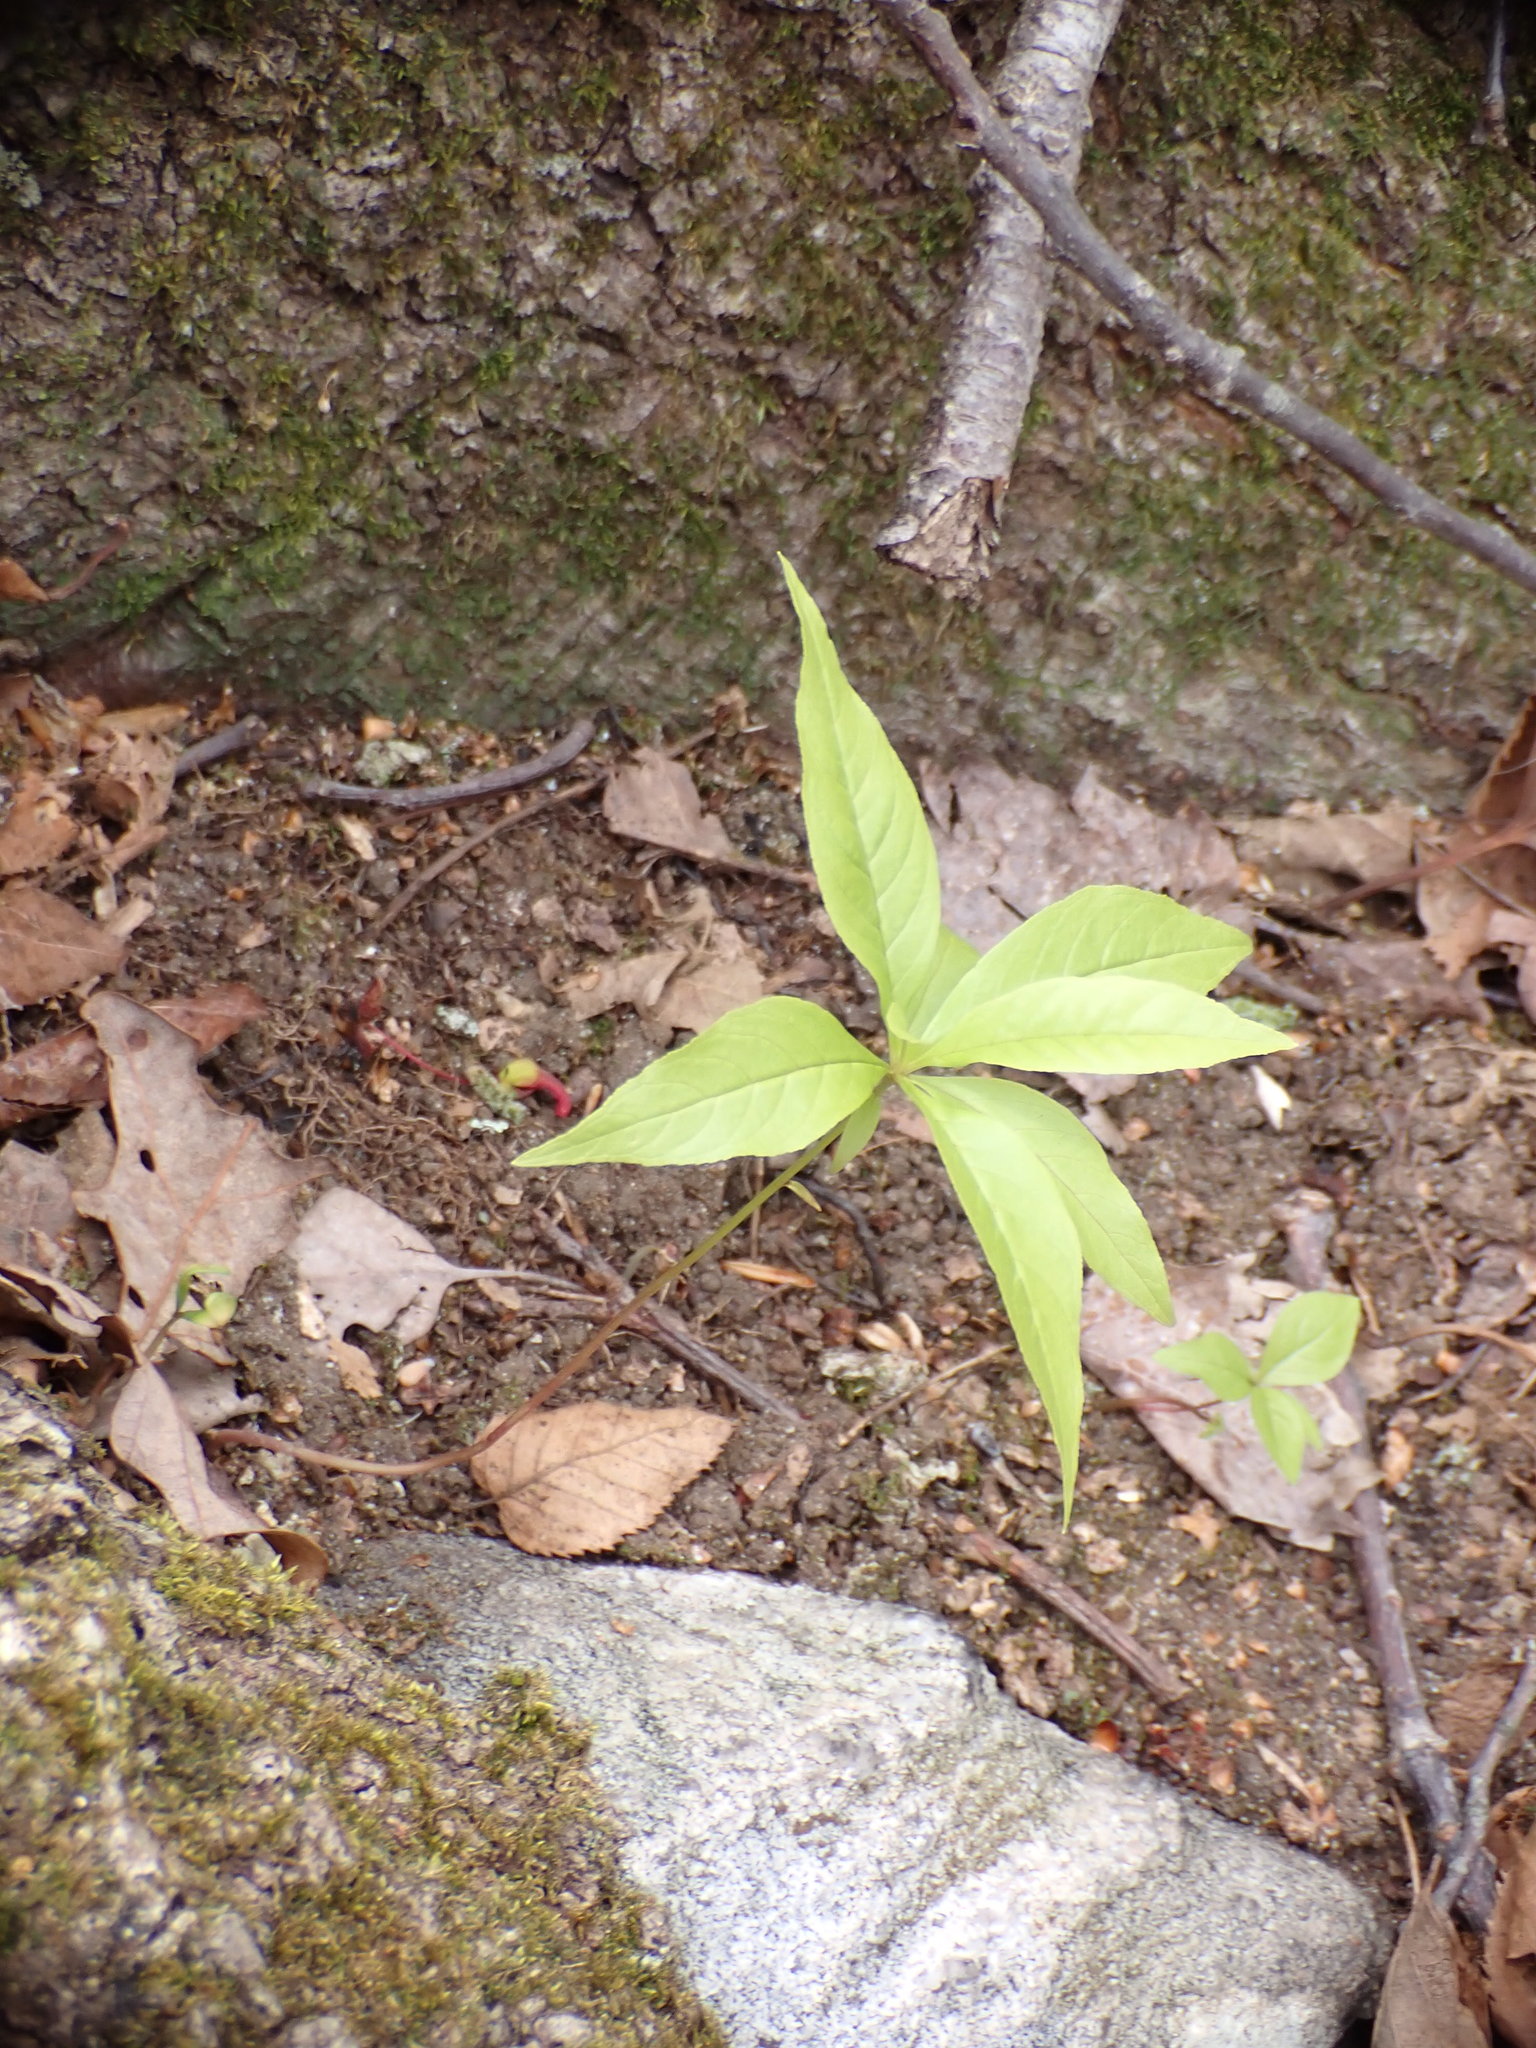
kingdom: Plantae
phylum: Tracheophyta
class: Magnoliopsida
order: Ericales
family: Primulaceae
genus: Lysimachia
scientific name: Lysimachia borealis
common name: American starflower
